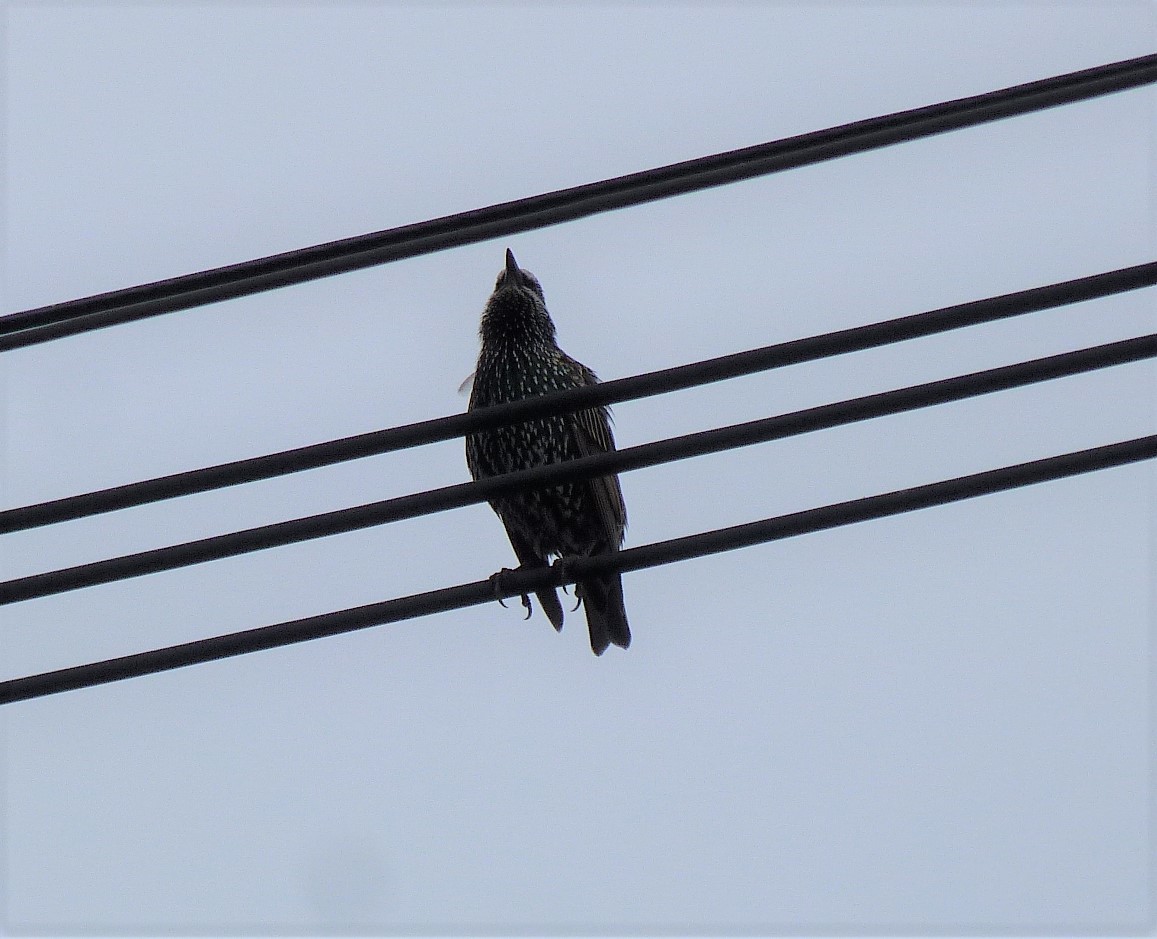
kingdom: Animalia
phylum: Chordata
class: Aves
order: Passeriformes
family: Sturnidae
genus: Sturnus
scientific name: Sturnus vulgaris
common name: Common starling
